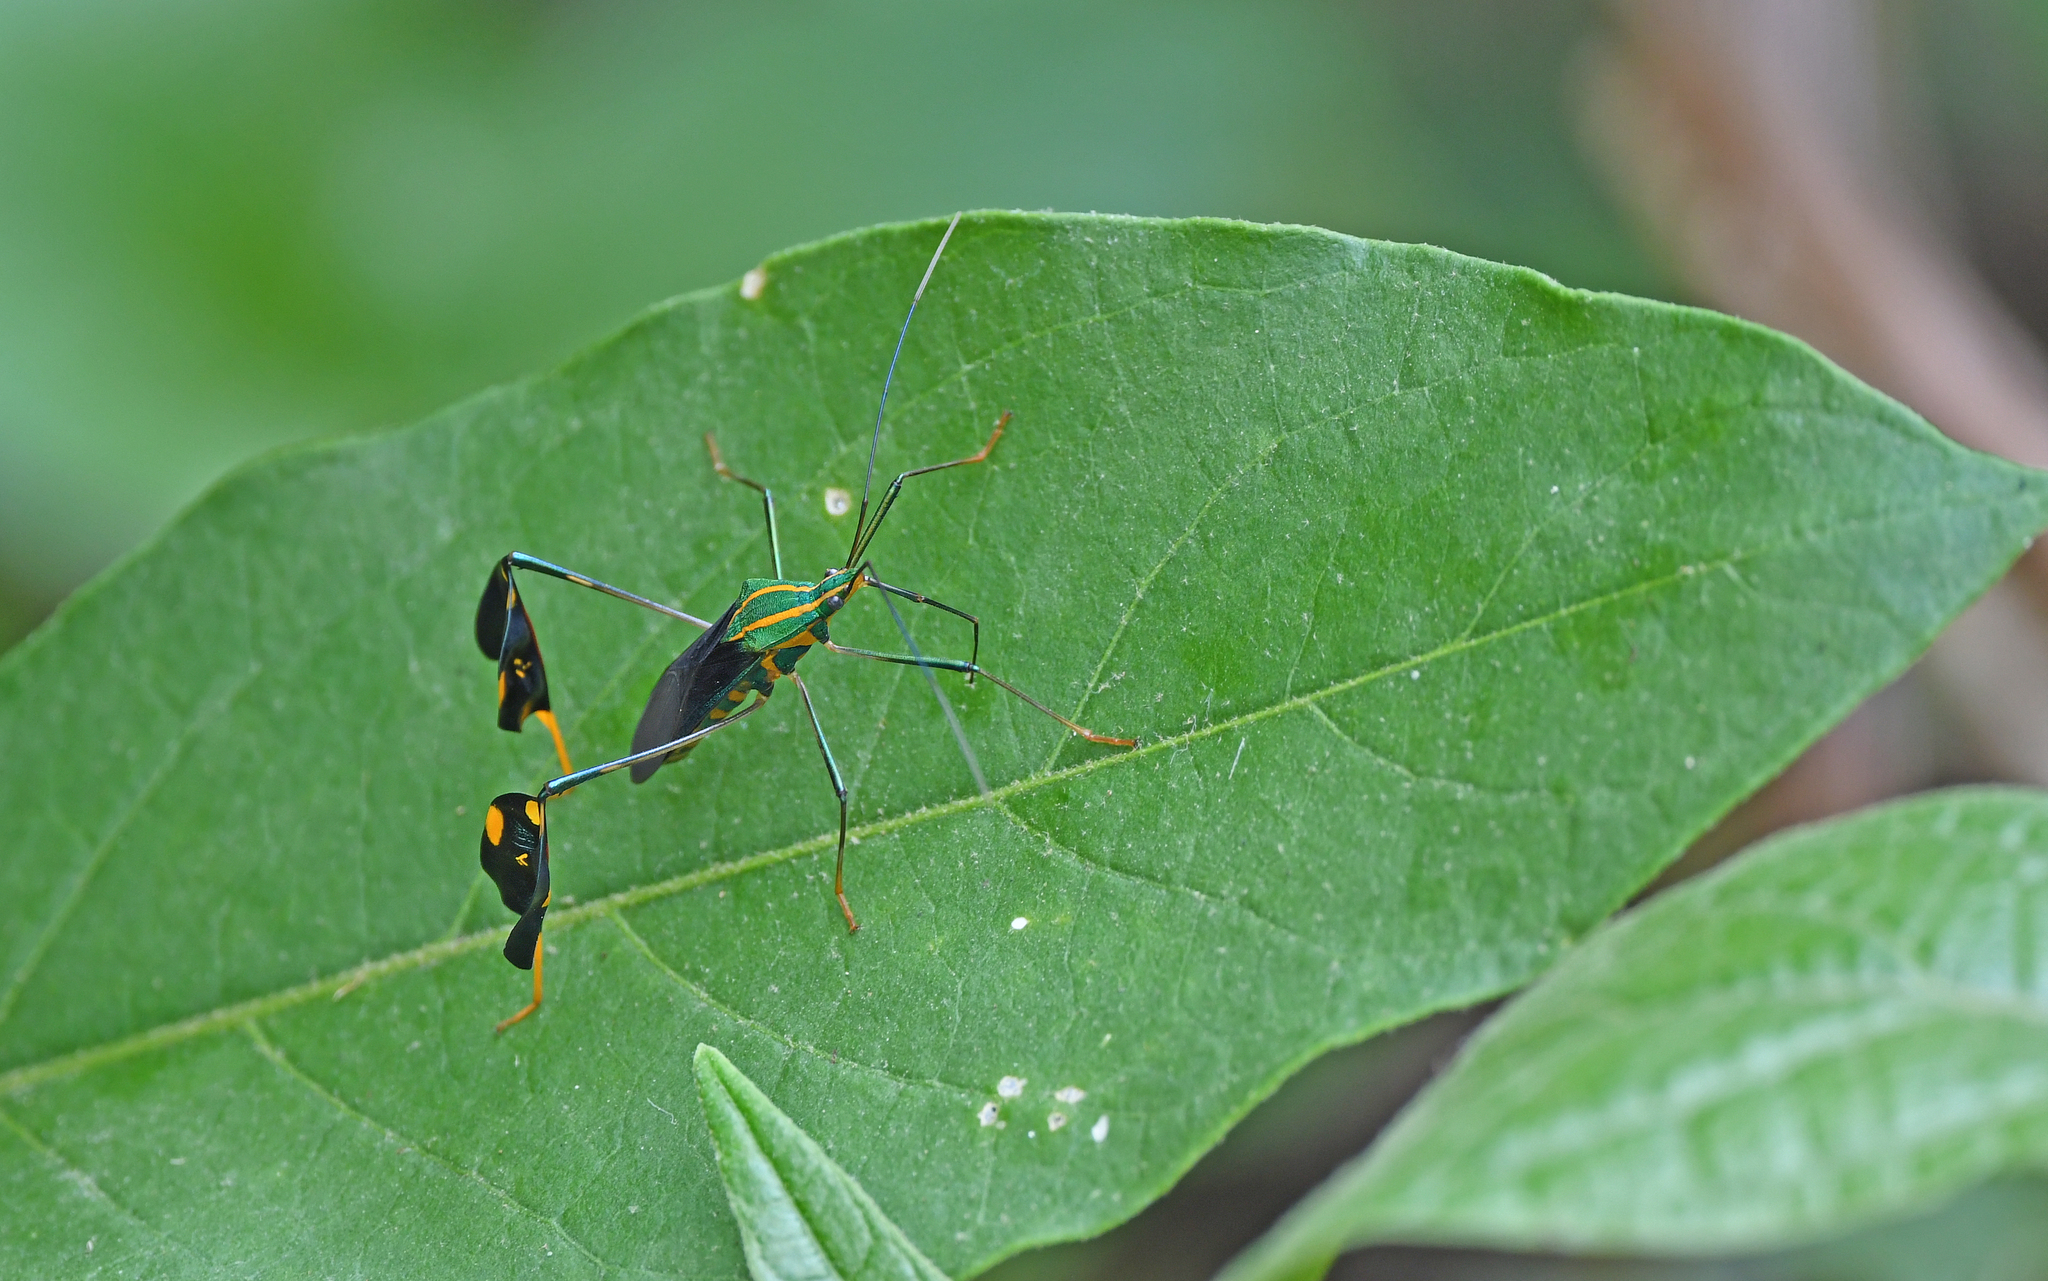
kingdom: Animalia
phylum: Arthropoda
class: Insecta
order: Hemiptera
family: Coreidae
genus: Diactor
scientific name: Diactor bilineatus
